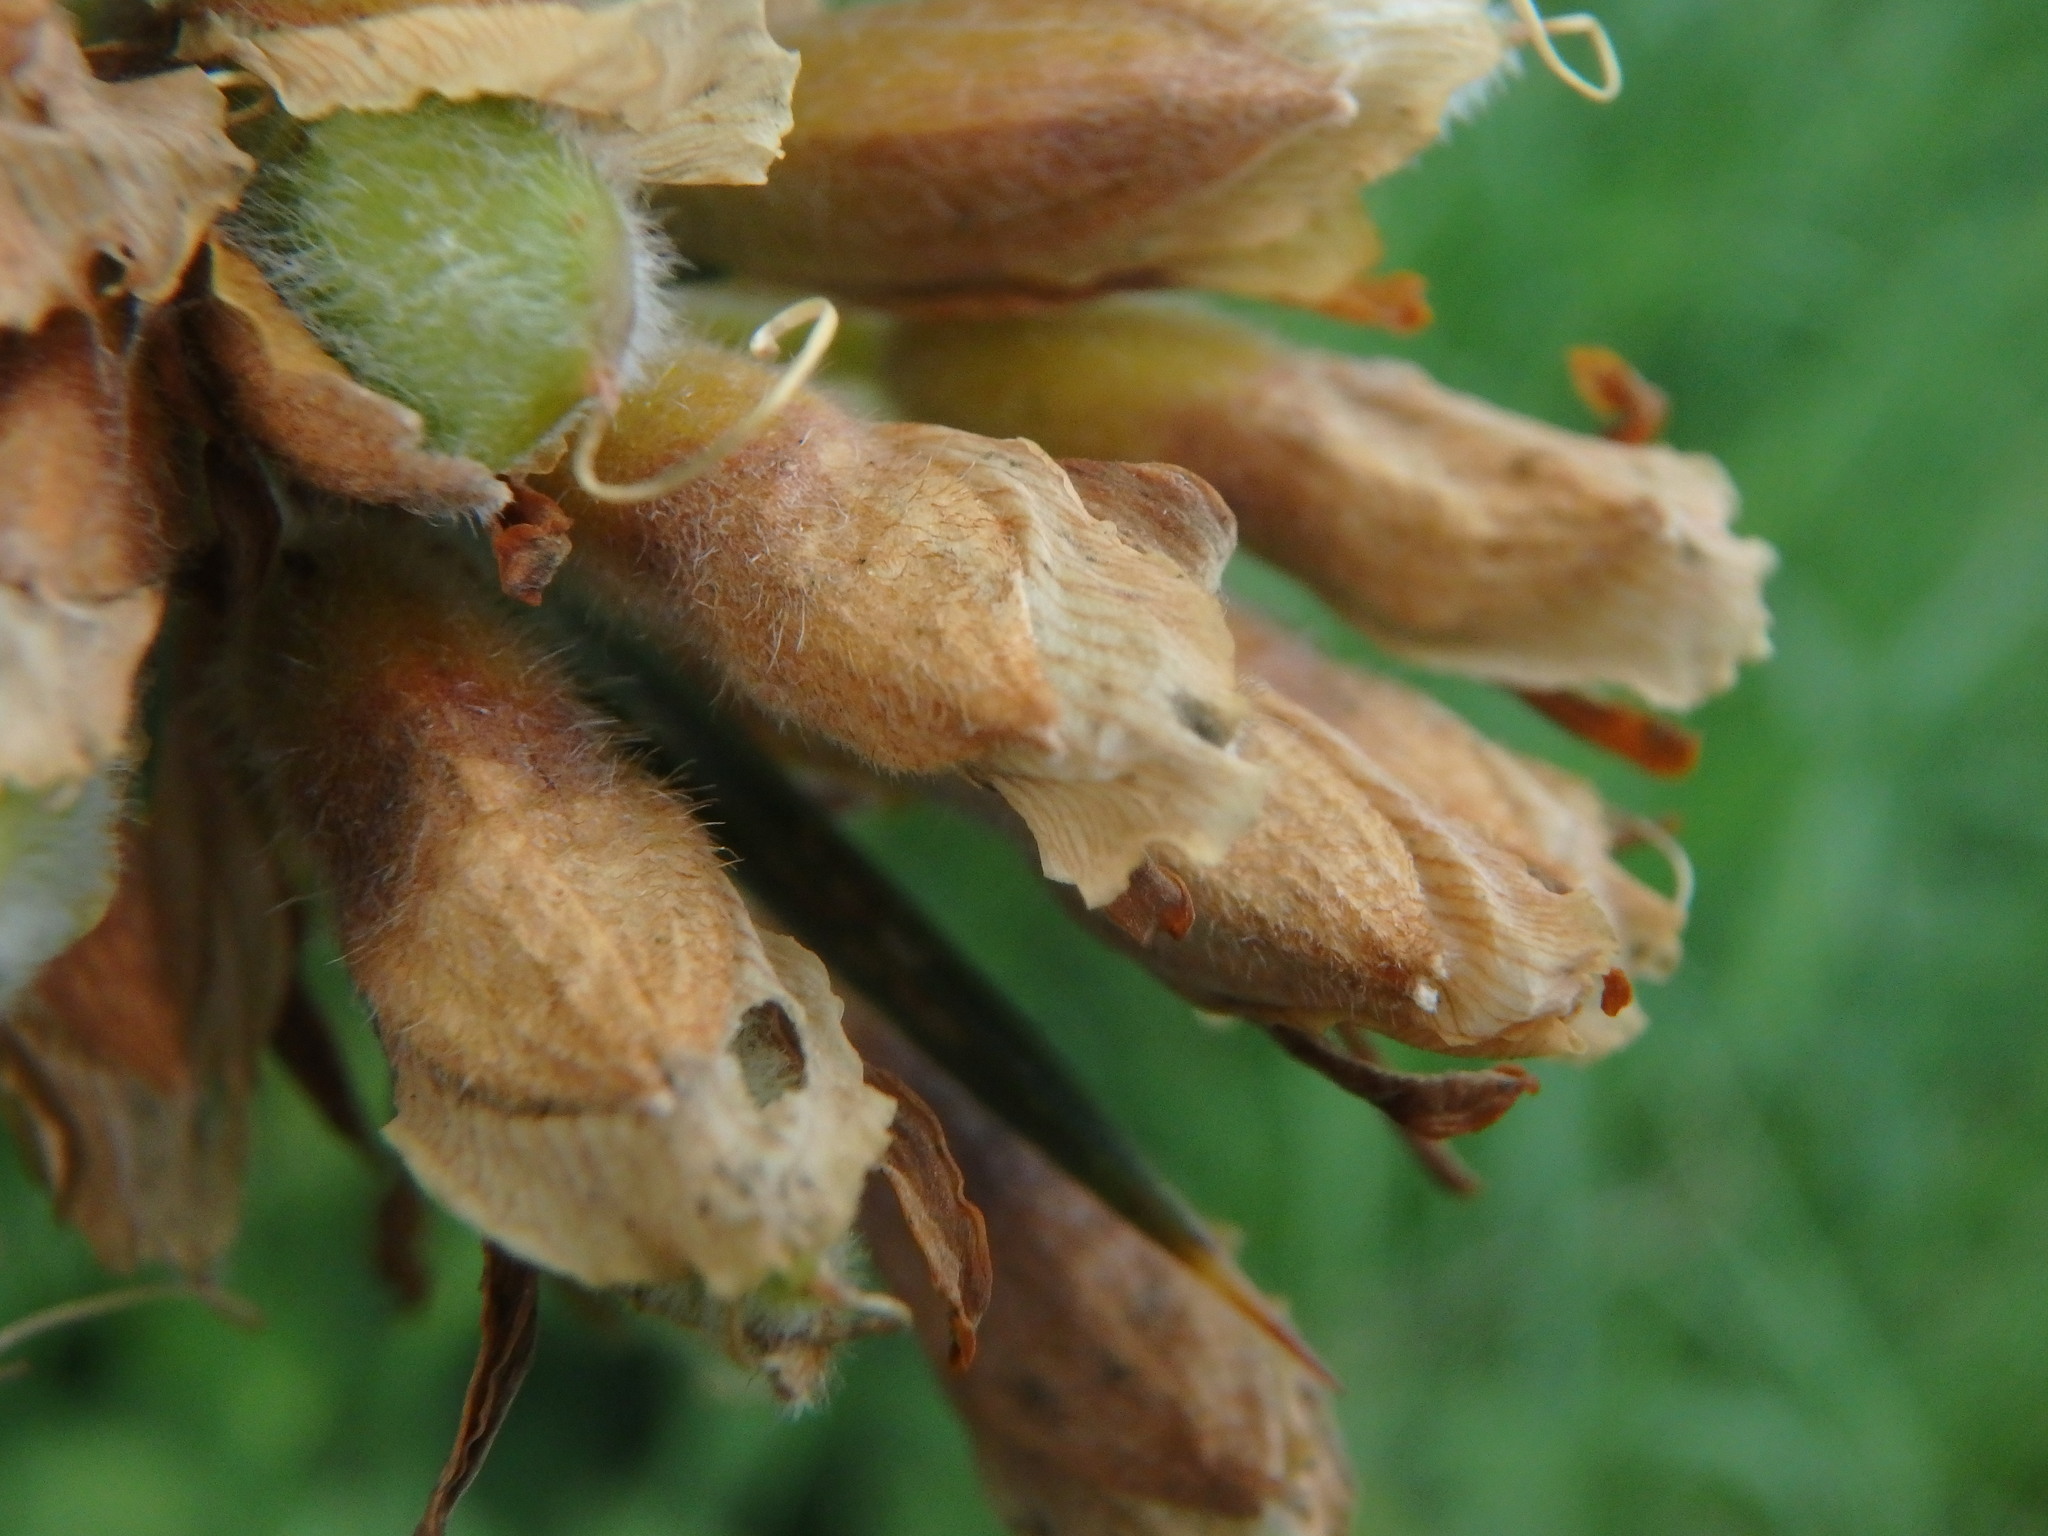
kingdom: Plantae
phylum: Tracheophyta
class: Magnoliopsida
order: Fabales
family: Fabaceae
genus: Ulex
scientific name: Ulex europaeus
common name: Common gorse
